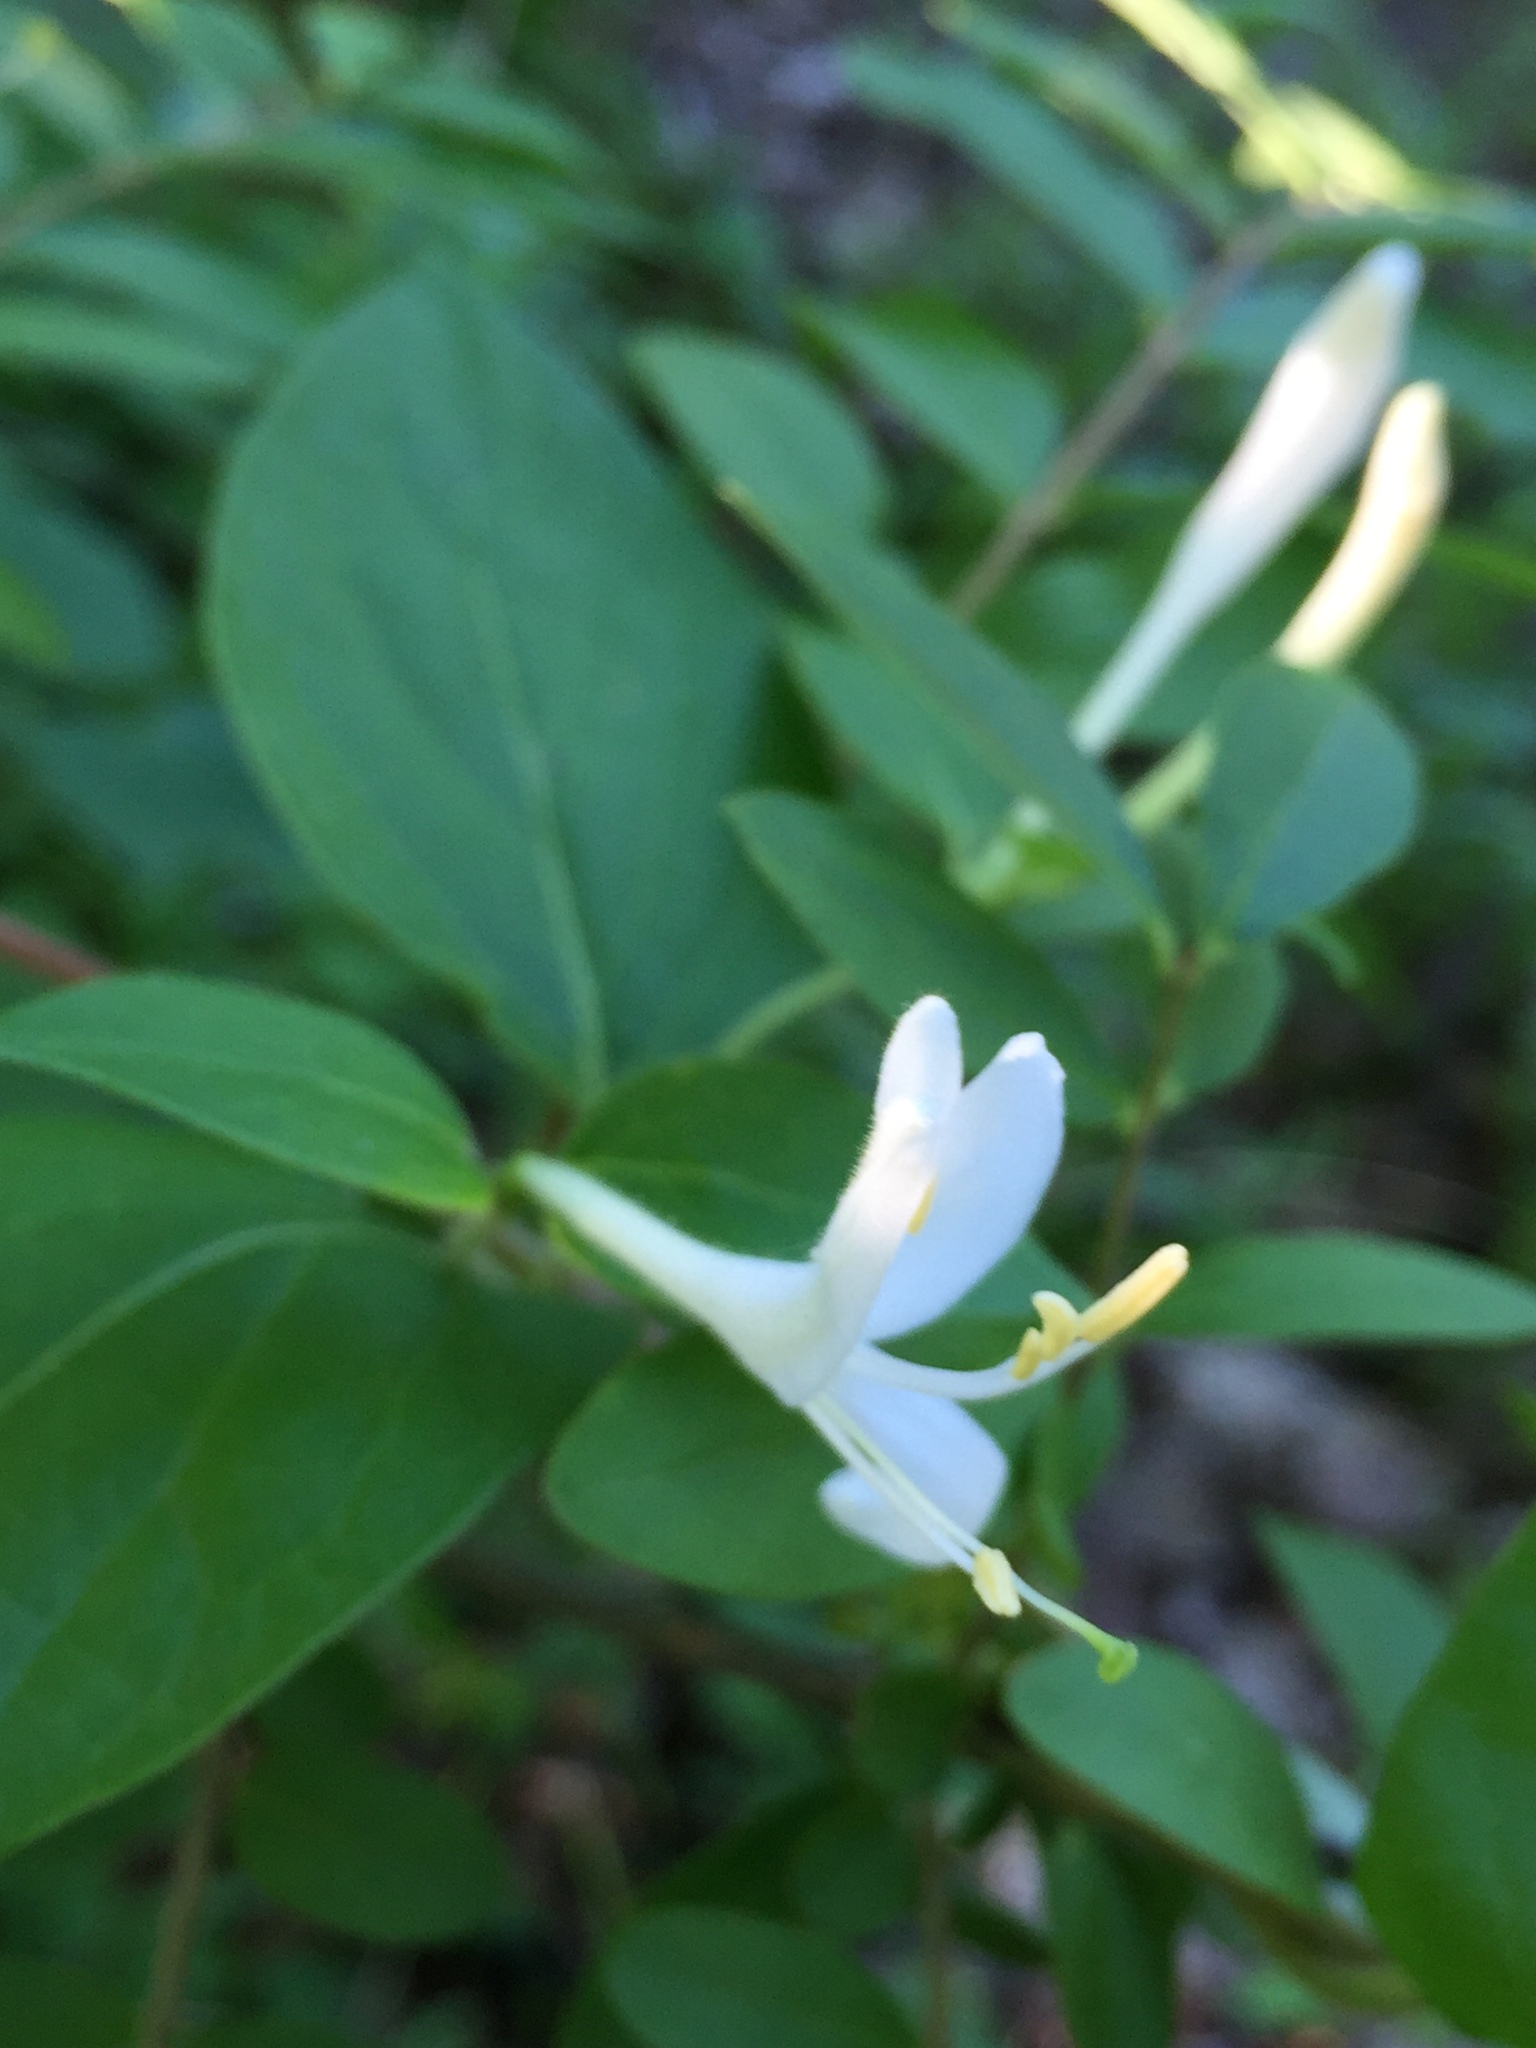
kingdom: Plantae
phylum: Tracheophyta
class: Magnoliopsida
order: Dipsacales
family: Caprifoliaceae
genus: Lonicera
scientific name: Lonicera japonica
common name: Japanese honeysuckle
